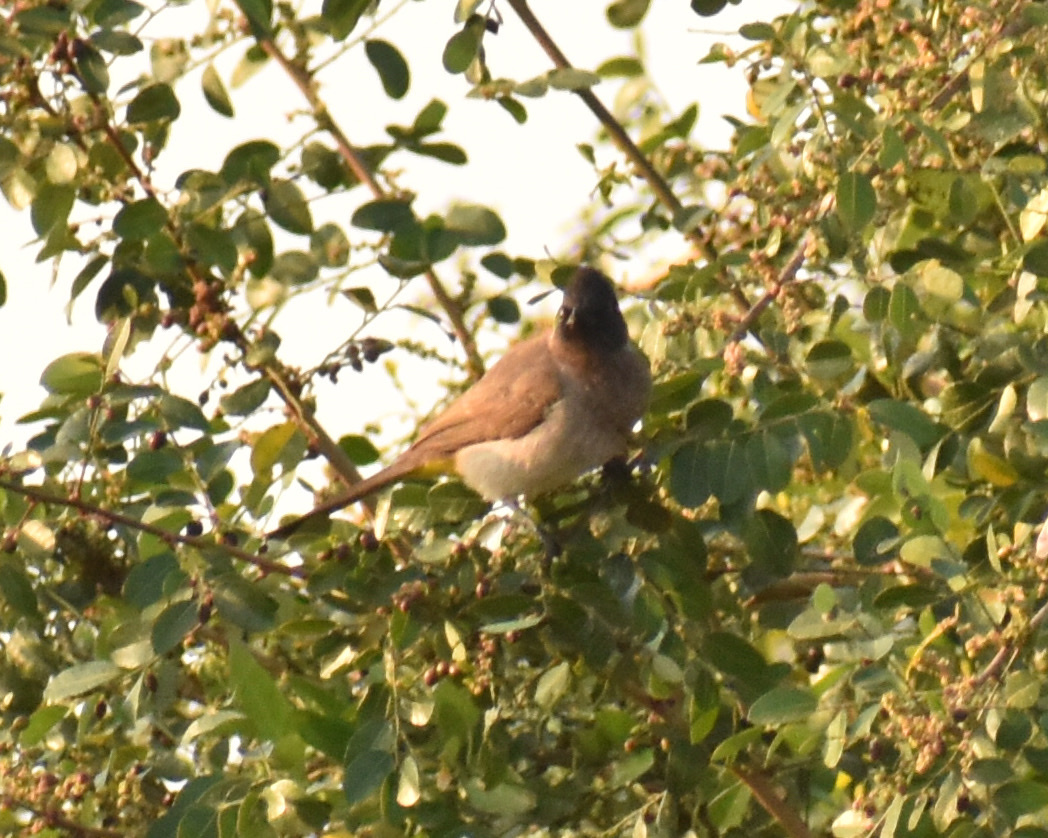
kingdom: Animalia
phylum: Chordata
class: Aves
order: Passeriformes
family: Pycnonotidae
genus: Pycnonotus
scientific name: Pycnonotus barbatus
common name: Common bulbul
